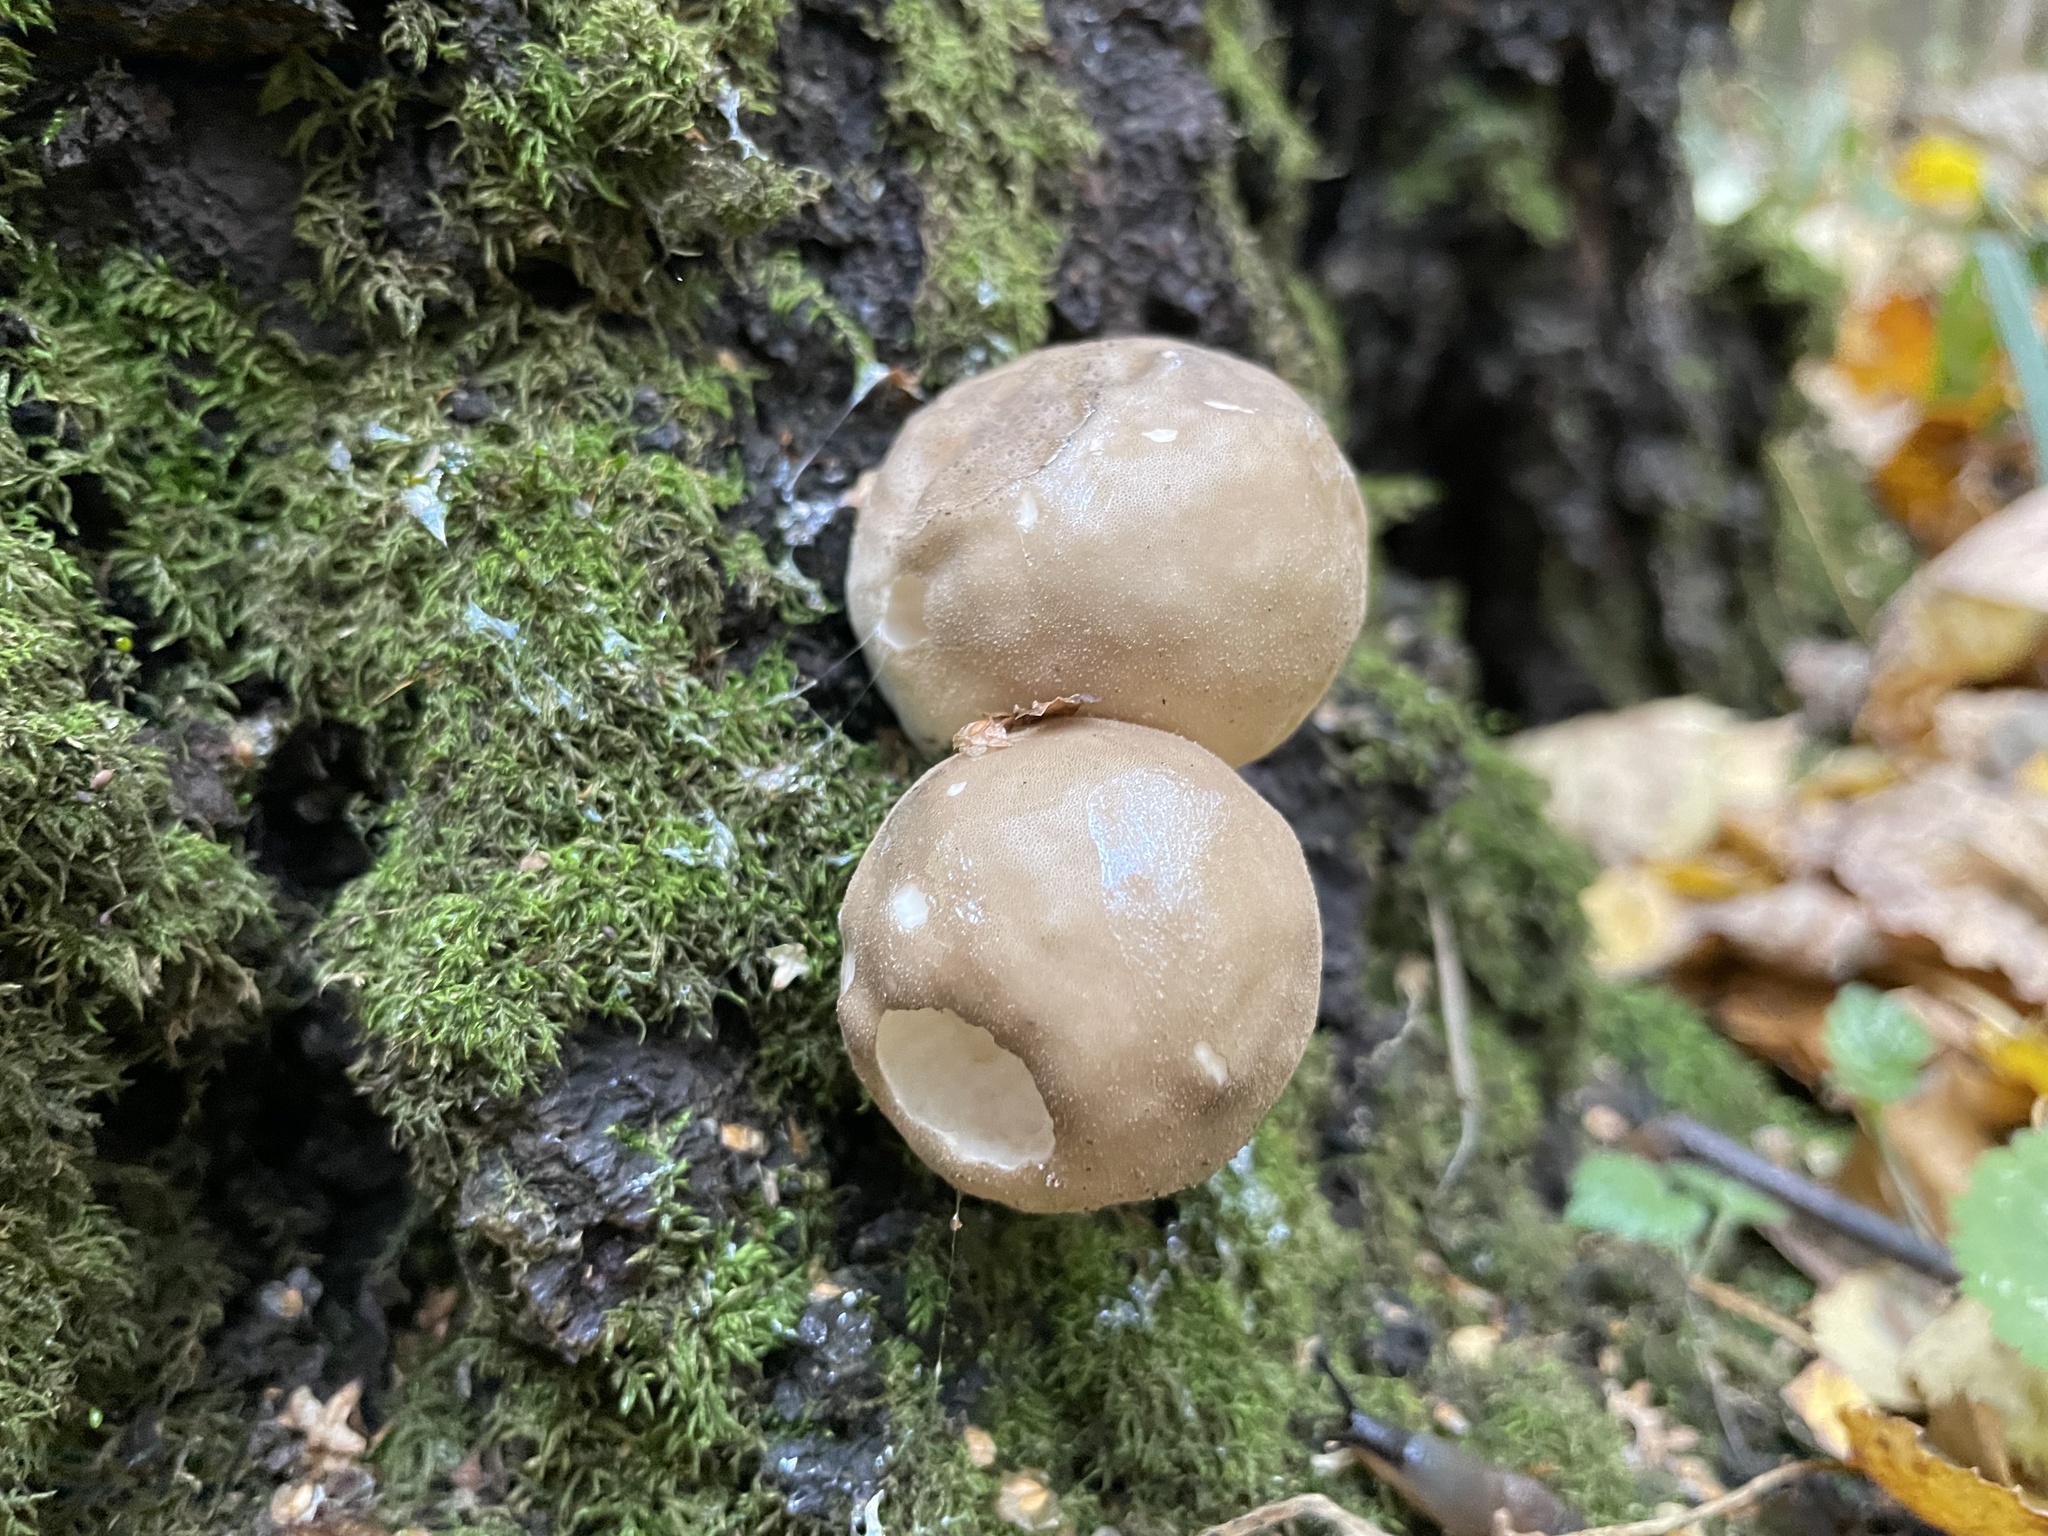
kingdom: Fungi
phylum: Basidiomycota
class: Agaricomycetes
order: Agaricales
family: Lycoperdaceae
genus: Apioperdon
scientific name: Apioperdon pyriforme
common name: Pear-shaped puffball
